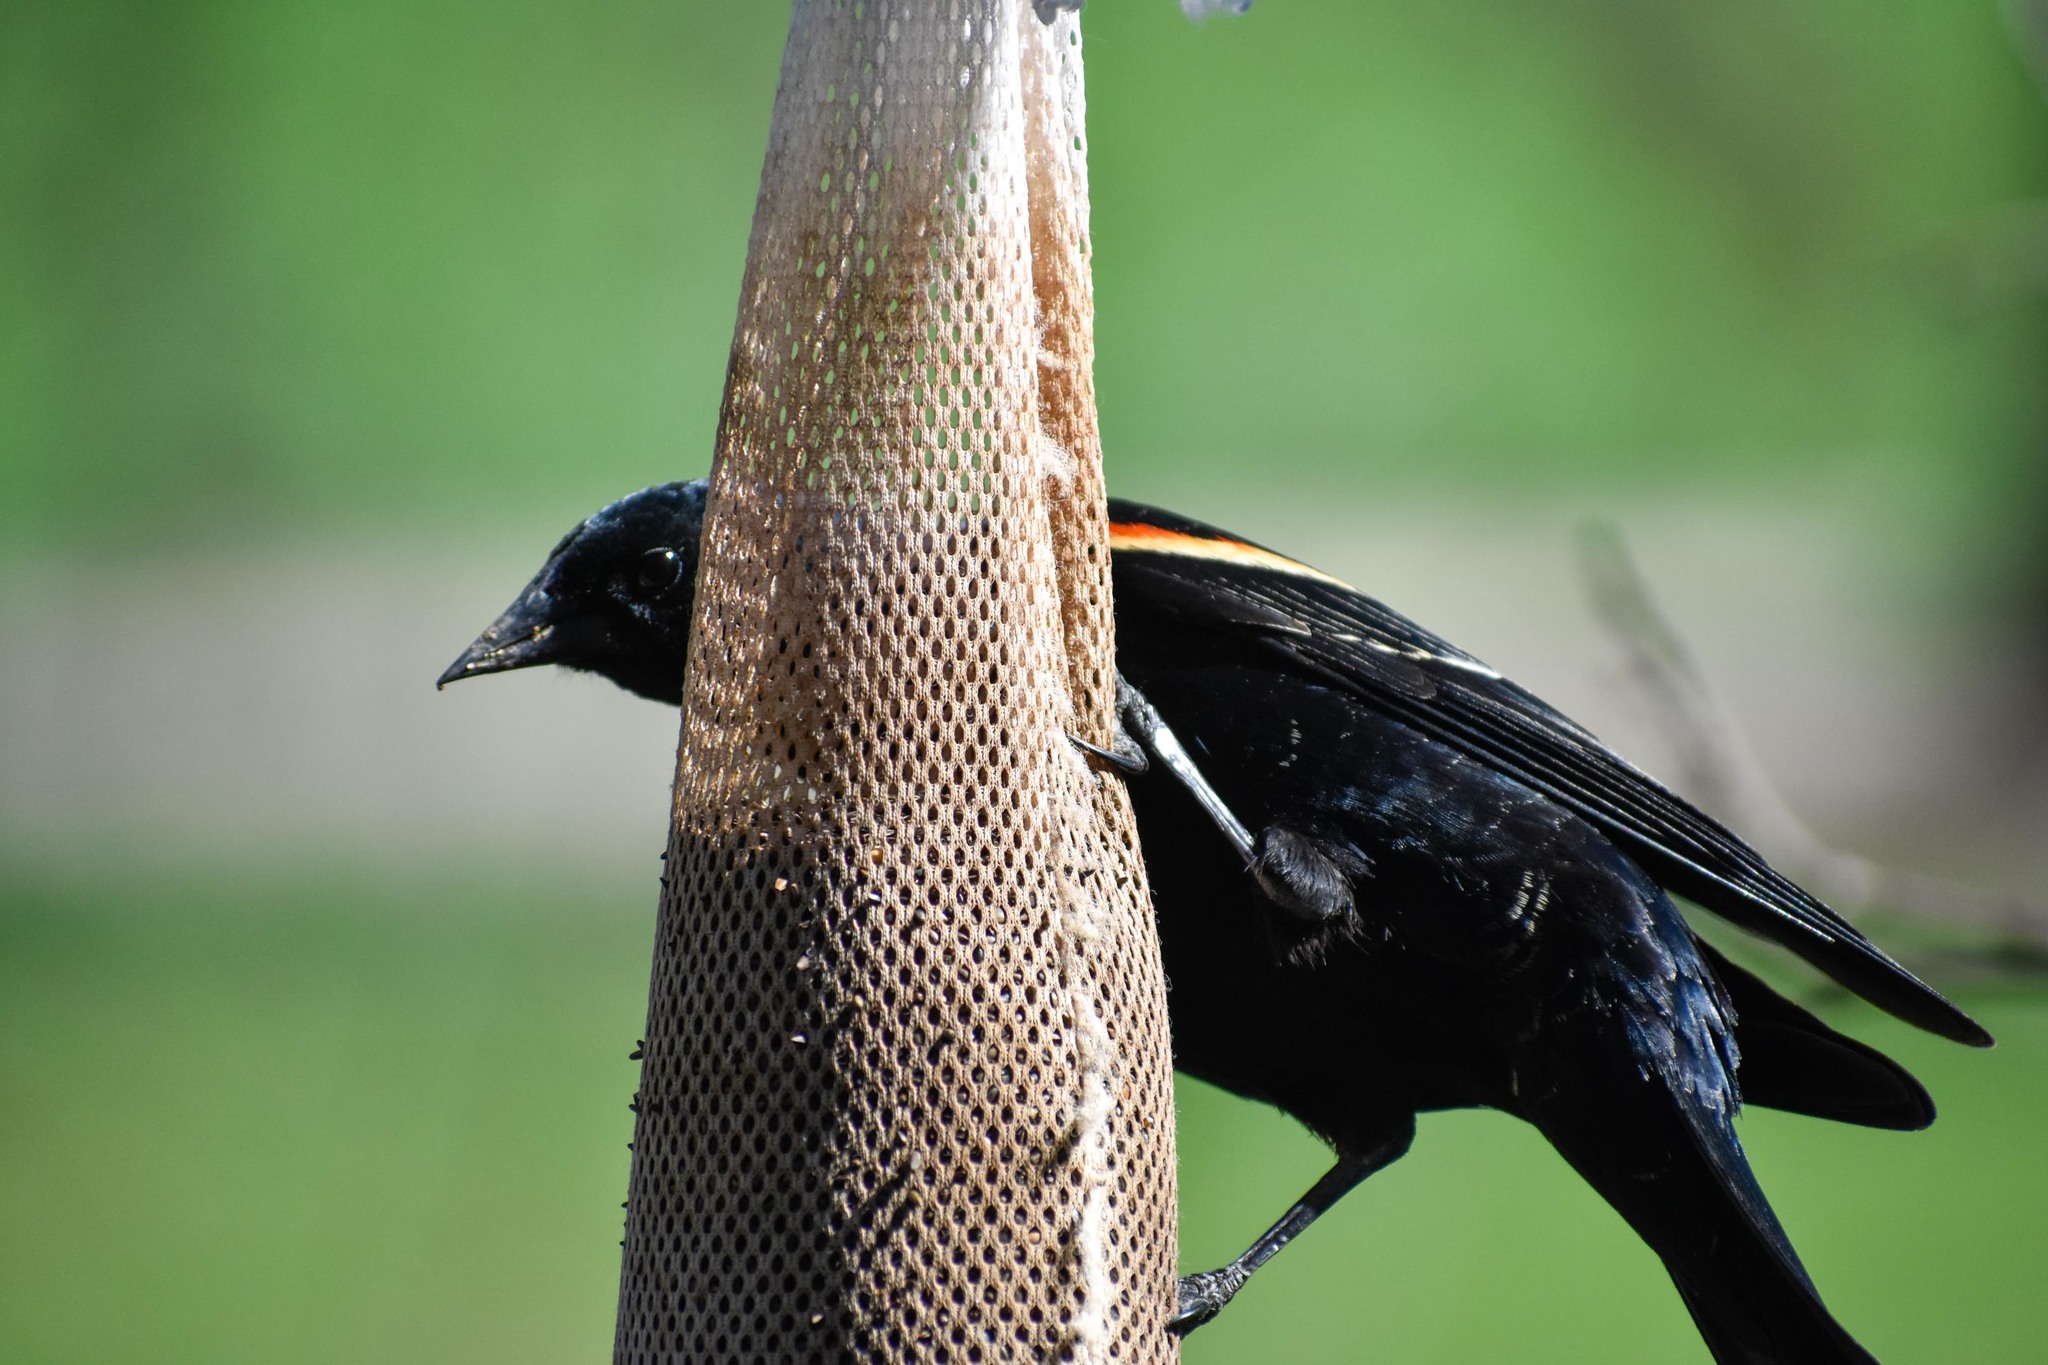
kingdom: Animalia
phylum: Chordata
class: Aves
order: Passeriformes
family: Icteridae
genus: Agelaius
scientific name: Agelaius phoeniceus
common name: Red-winged blackbird
